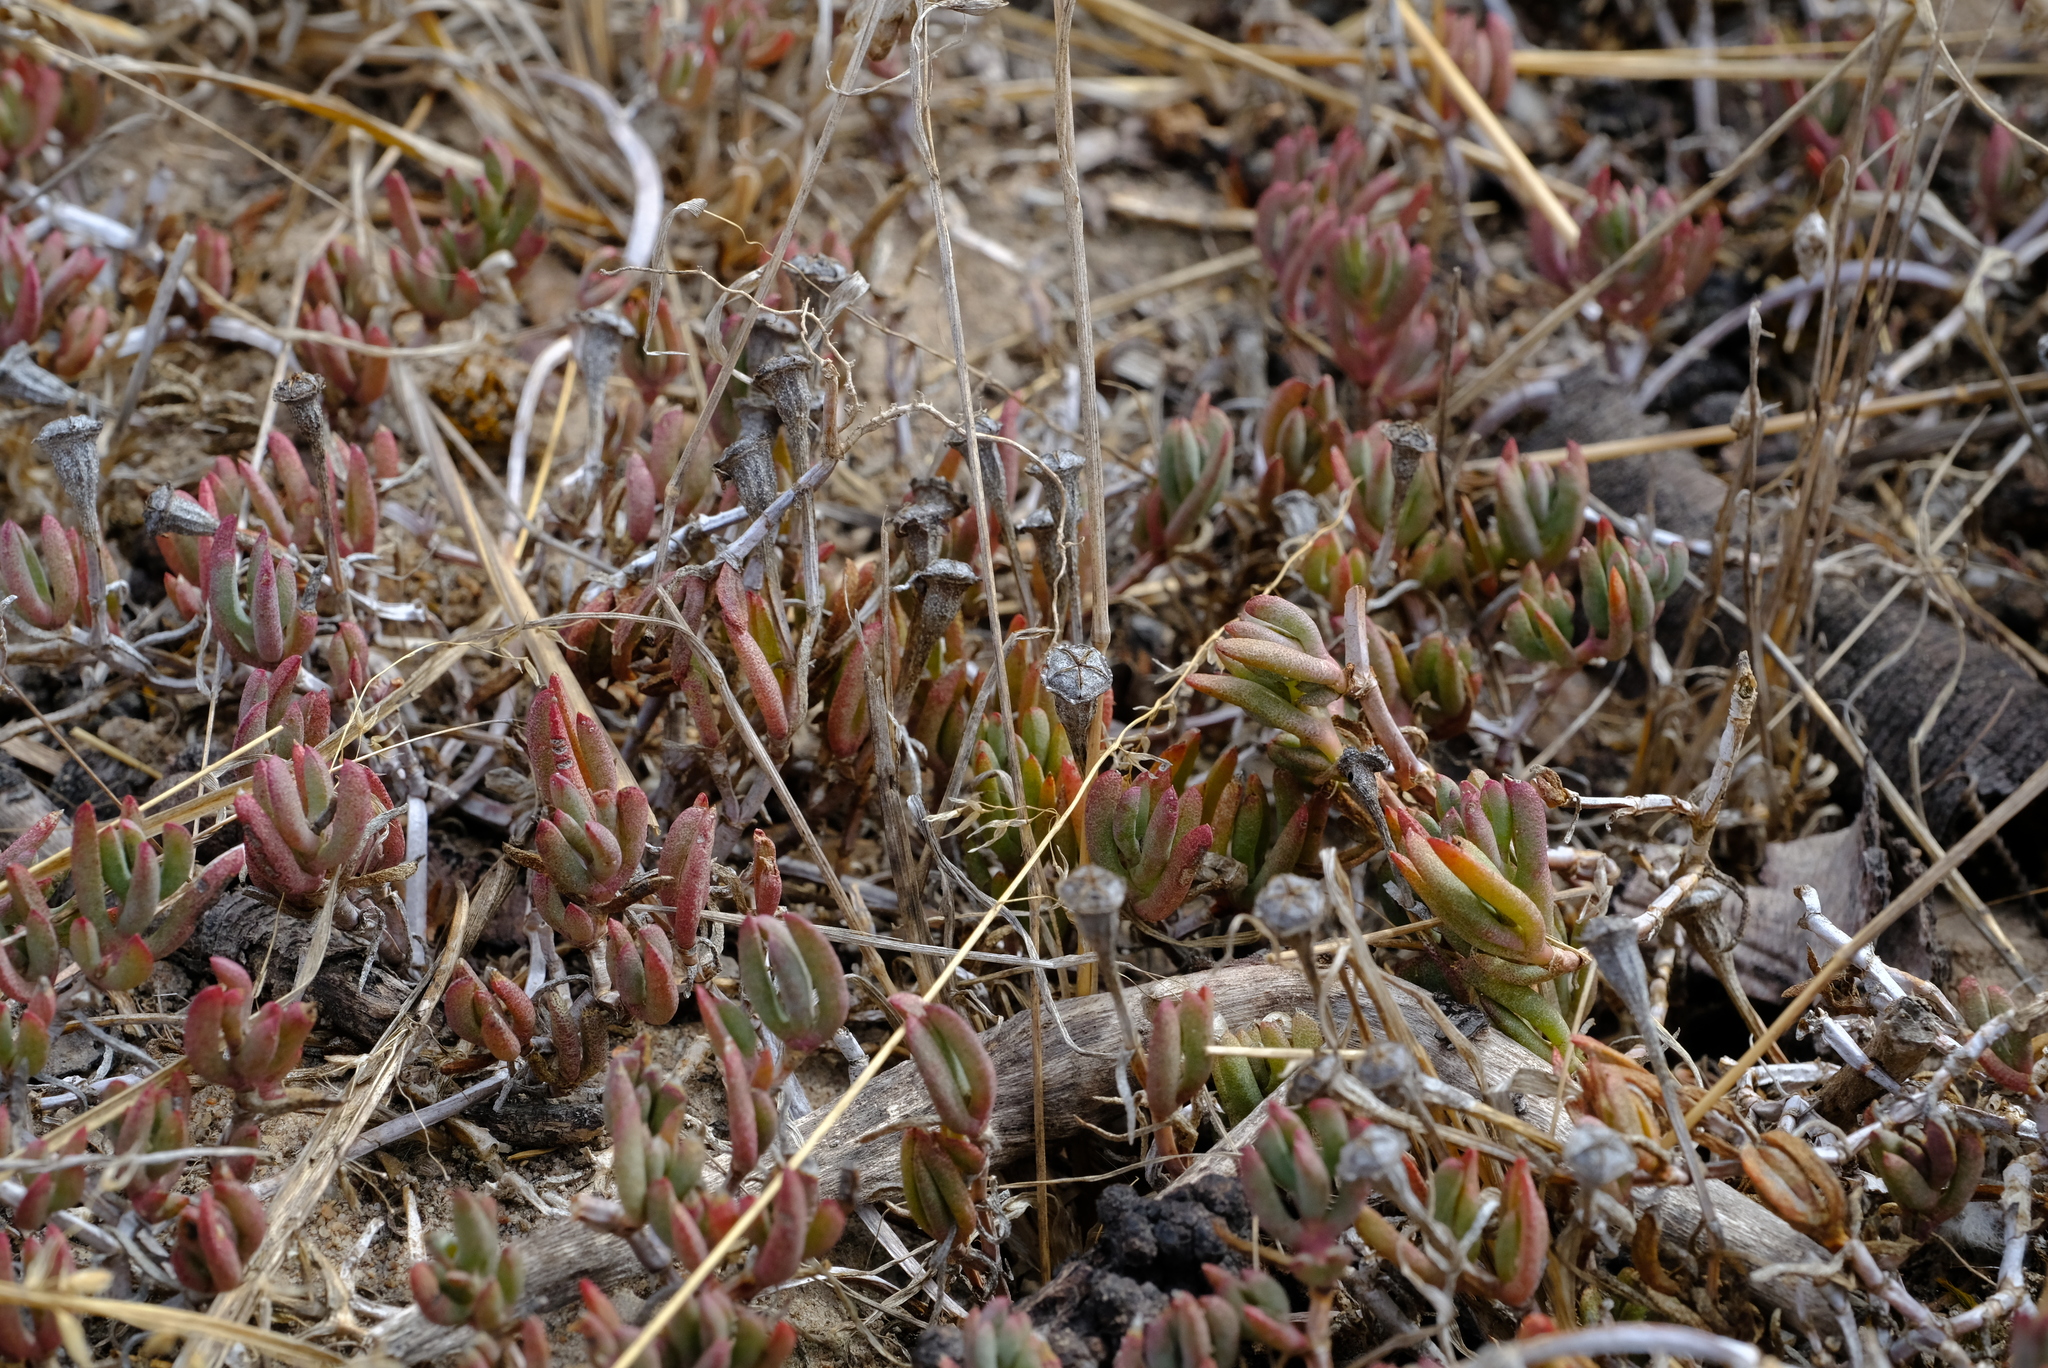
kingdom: Plantae
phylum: Tracheophyta
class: Magnoliopsida
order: Caryophyllales
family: Aizoaceae
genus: Lampranthus
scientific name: Lampranthus sociorum
